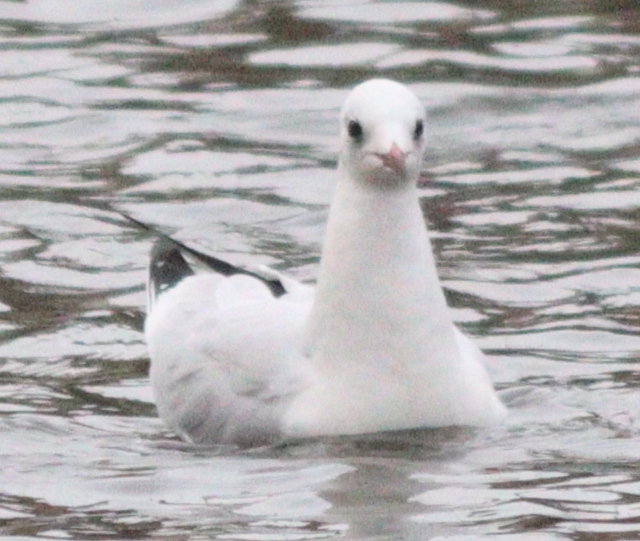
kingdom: Animalia
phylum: Chordata
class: Aves
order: Charadriiformes
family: Laridae
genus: Chroicocephalus
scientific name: Chroicocephalus ridibundus
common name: Black-headed gull
